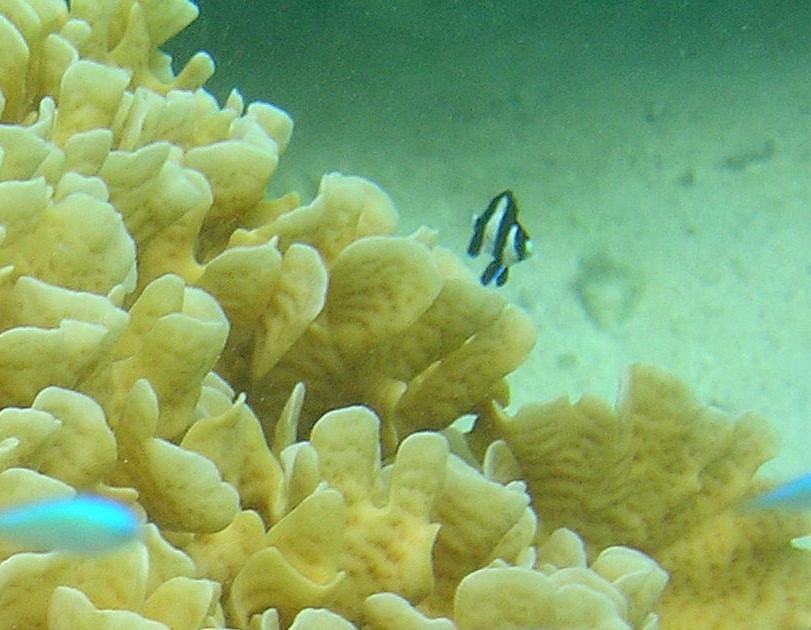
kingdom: Animalia
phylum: Chordata
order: Perciformes
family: Pomacentridae
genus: Dascyllus
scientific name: Dascyllus aruanus
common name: Humbug dascyllus
